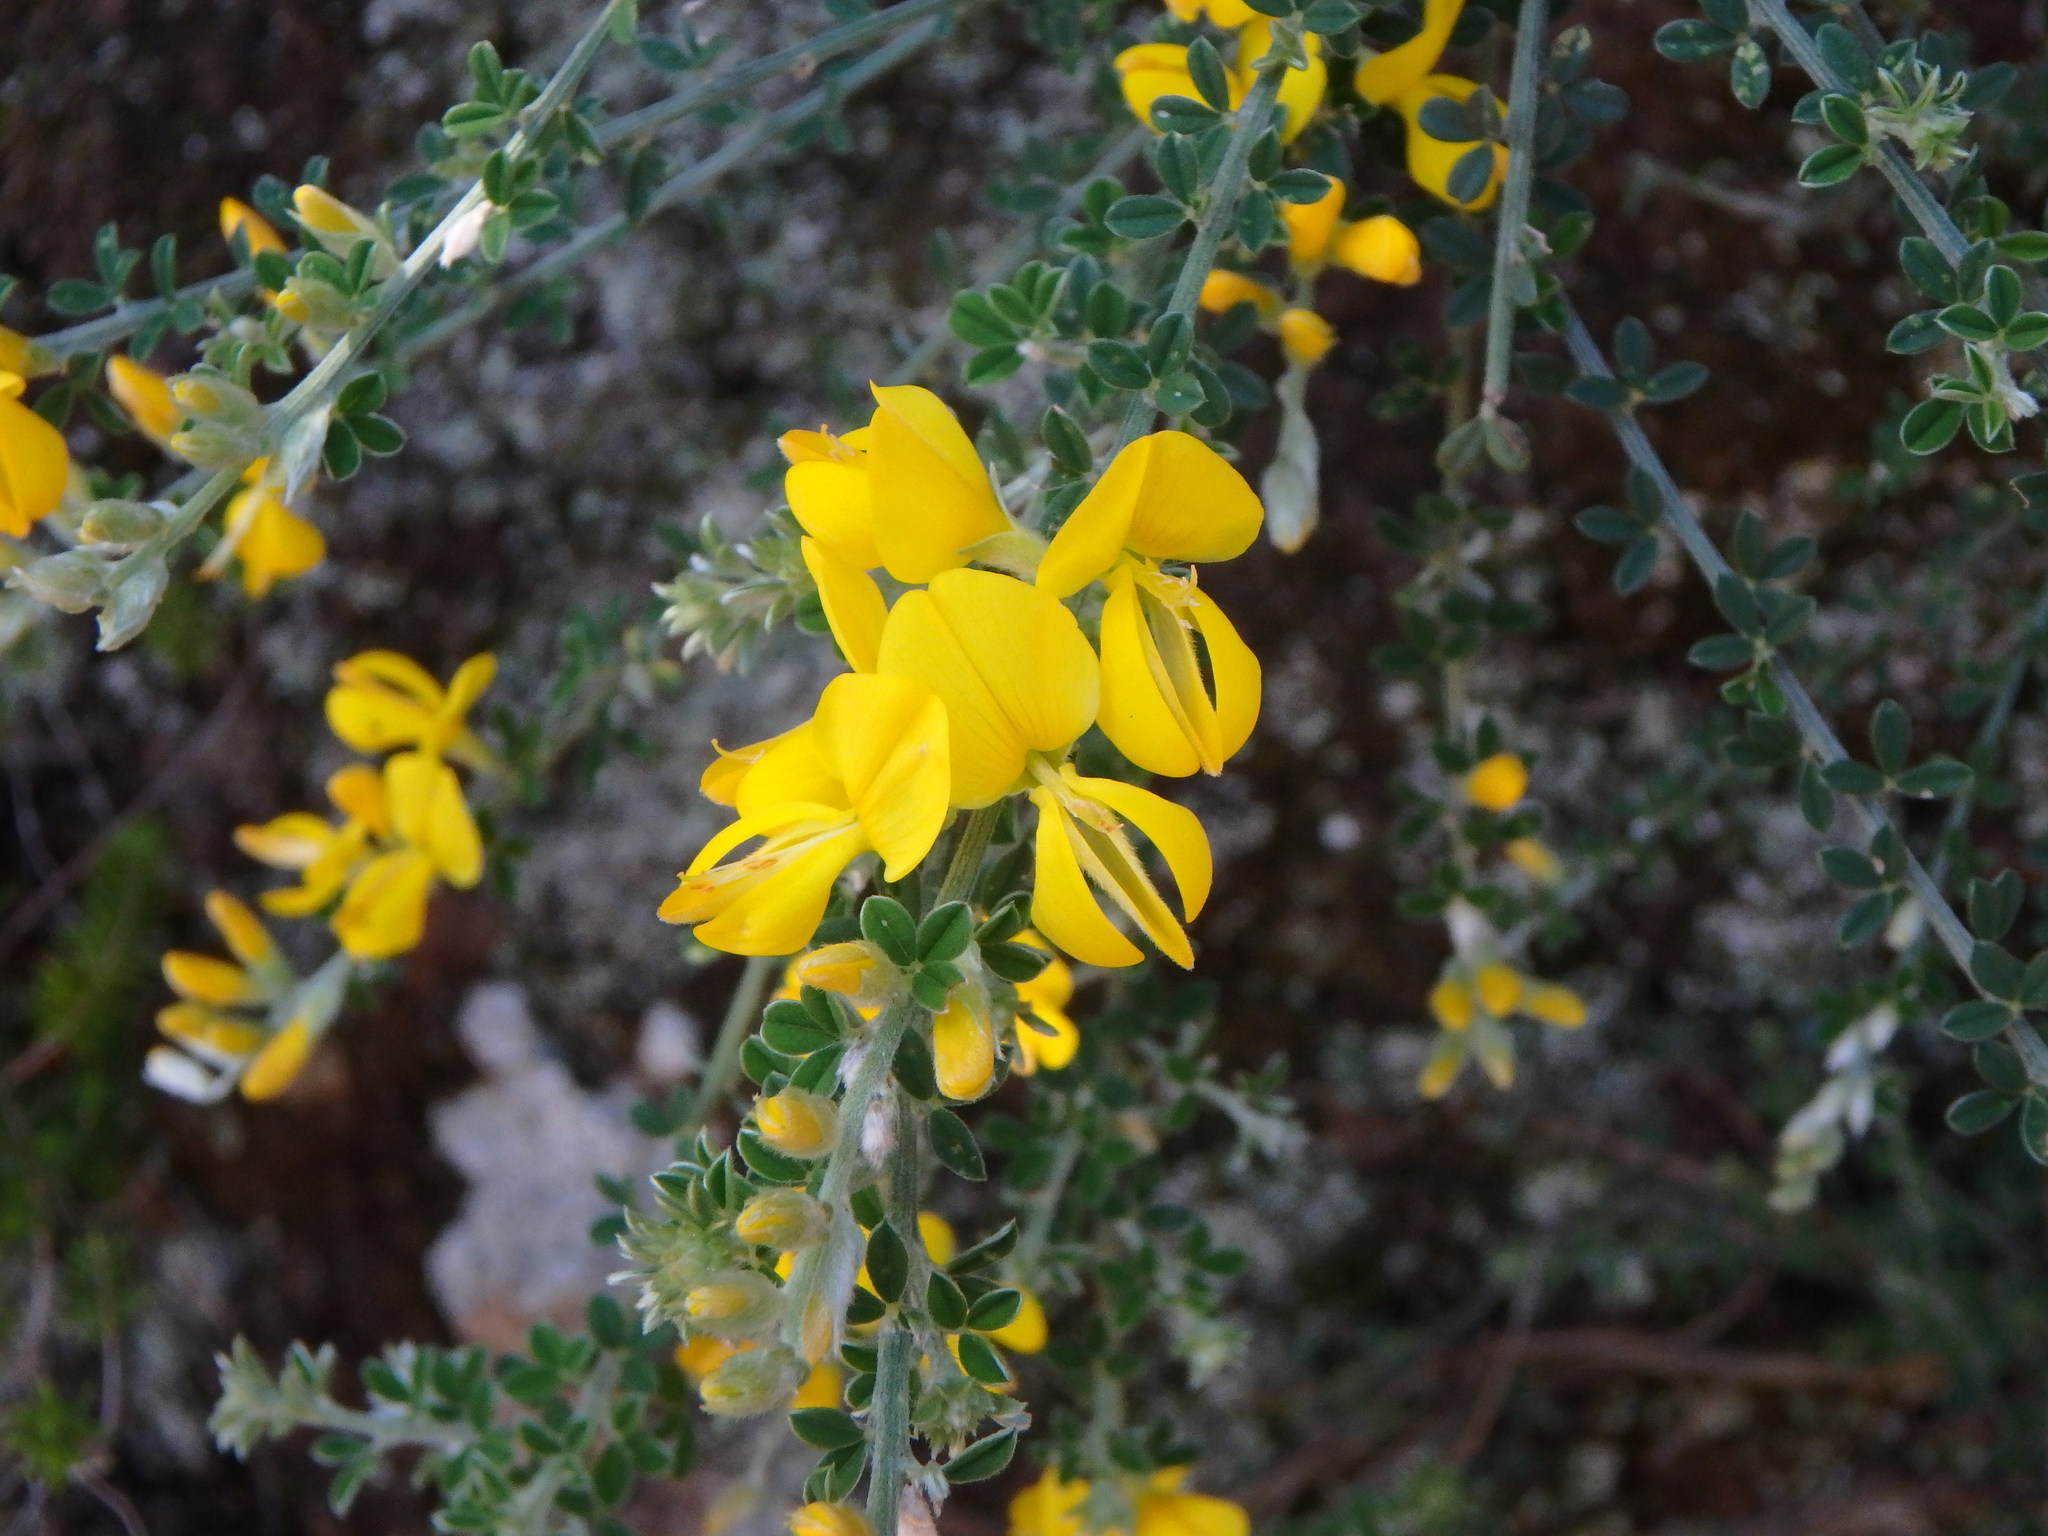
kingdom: Plantae
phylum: Tracheophyta
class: Magnoliopsida
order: Fabales
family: Fabaceae
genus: Genista
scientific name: Genista cadasonensis
